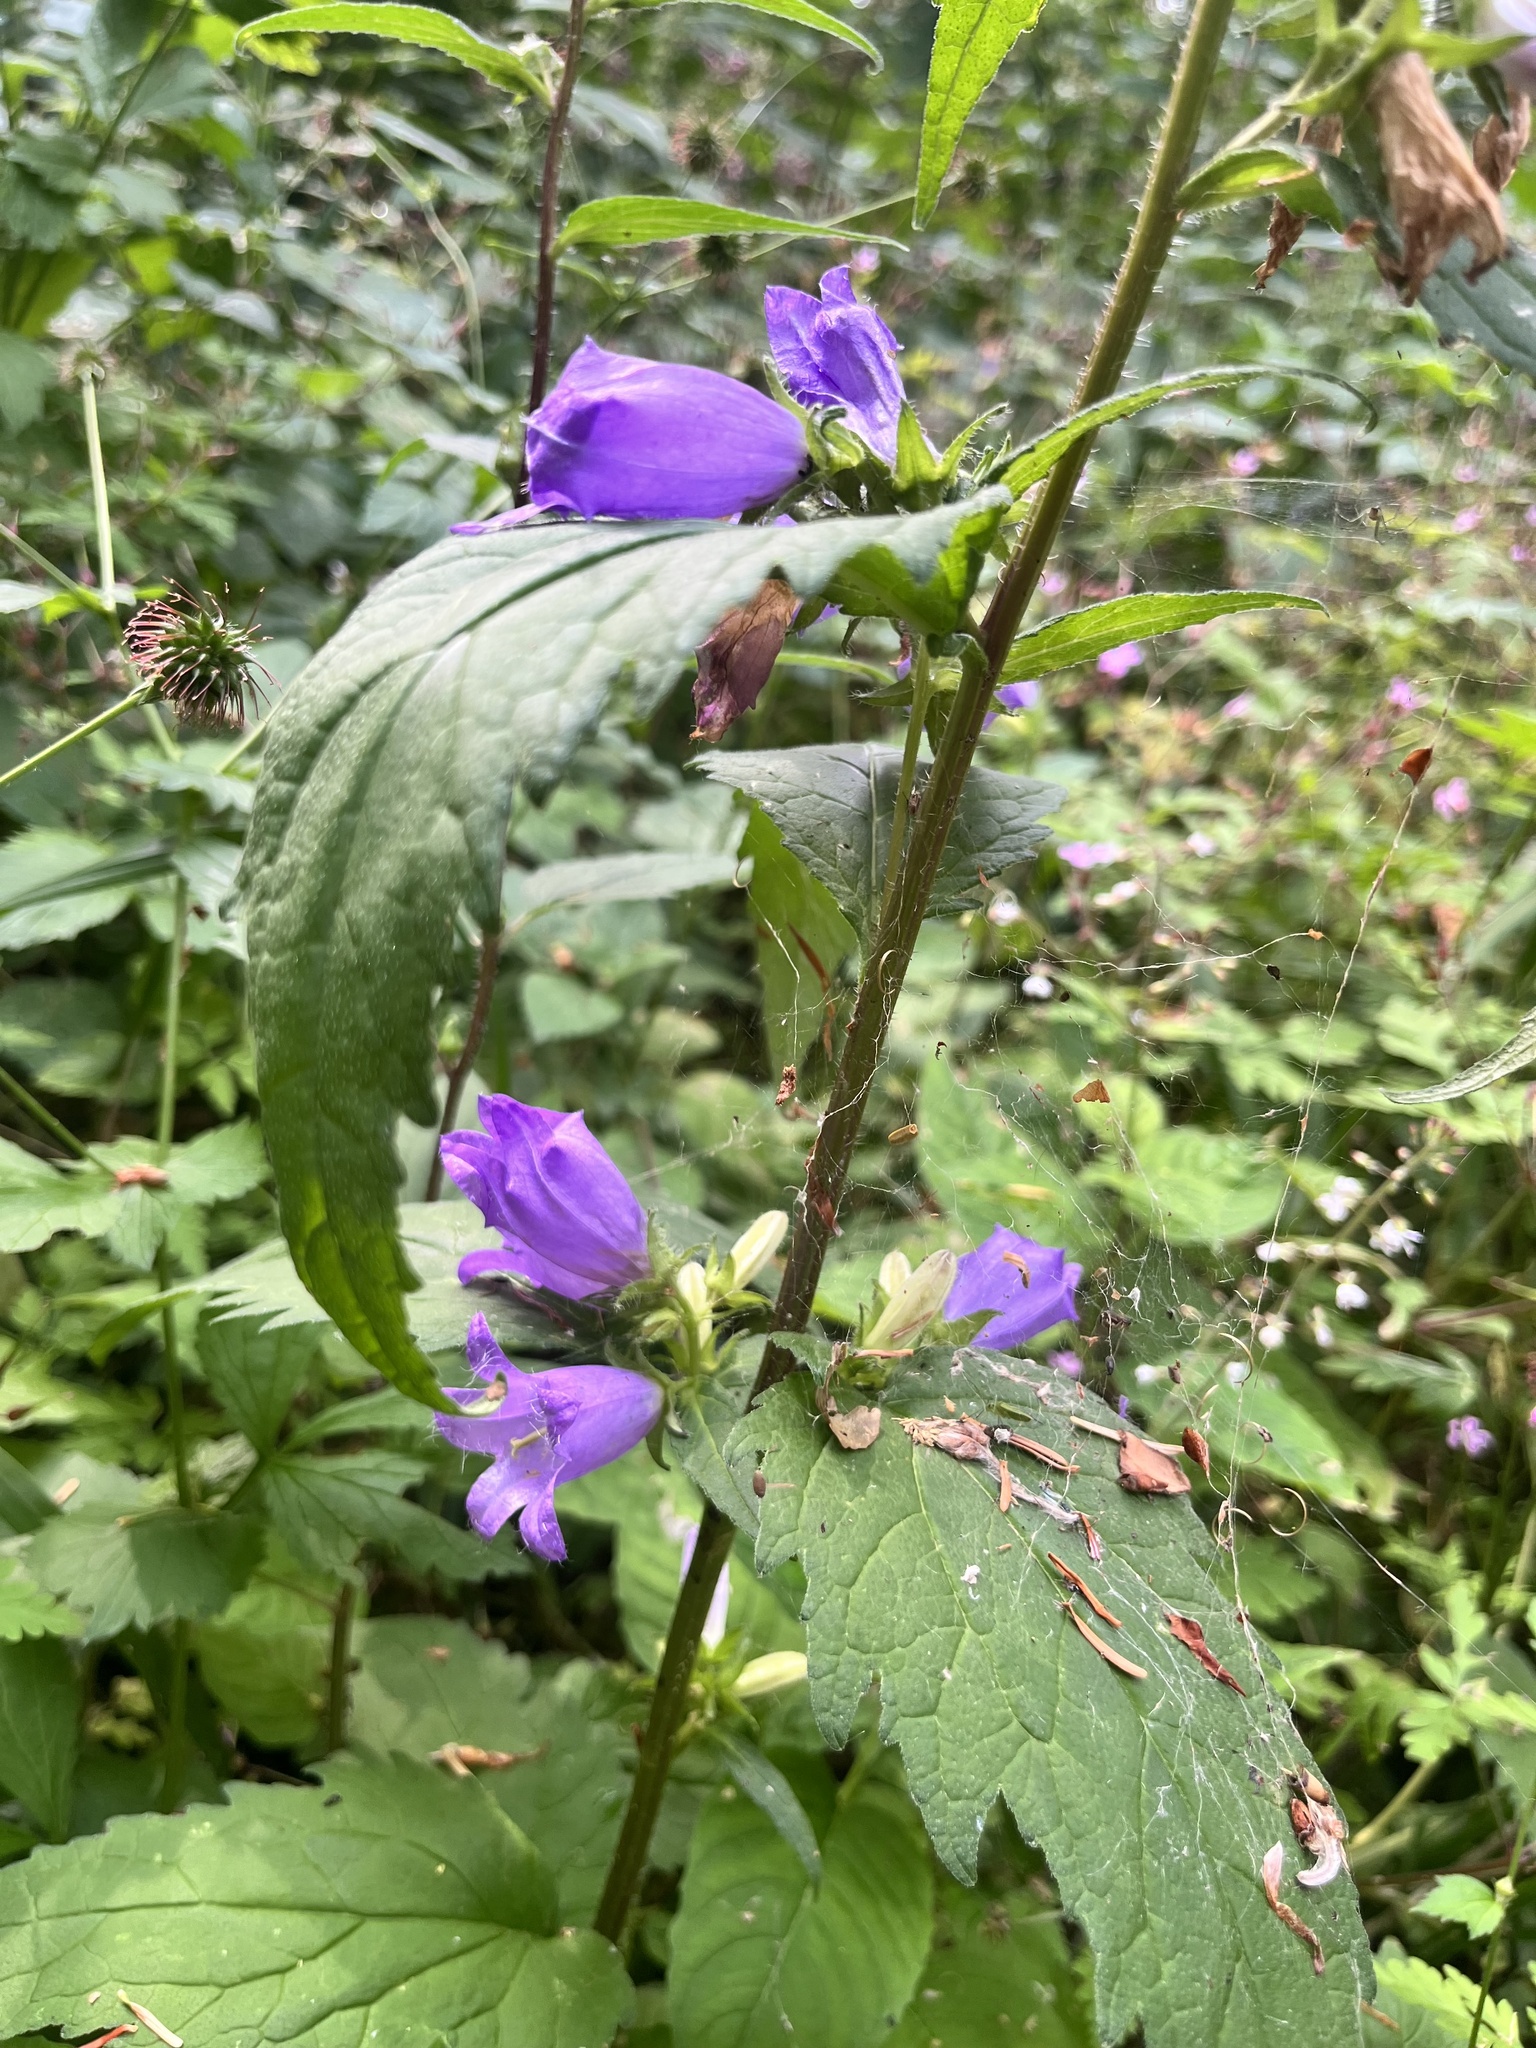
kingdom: Plantae
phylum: Tracheophyta
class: Magnoliopsida
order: Asterales
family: Campanulaceae
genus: Campanula
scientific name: Campanula trachelium
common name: Nettle-leaved bellflower
